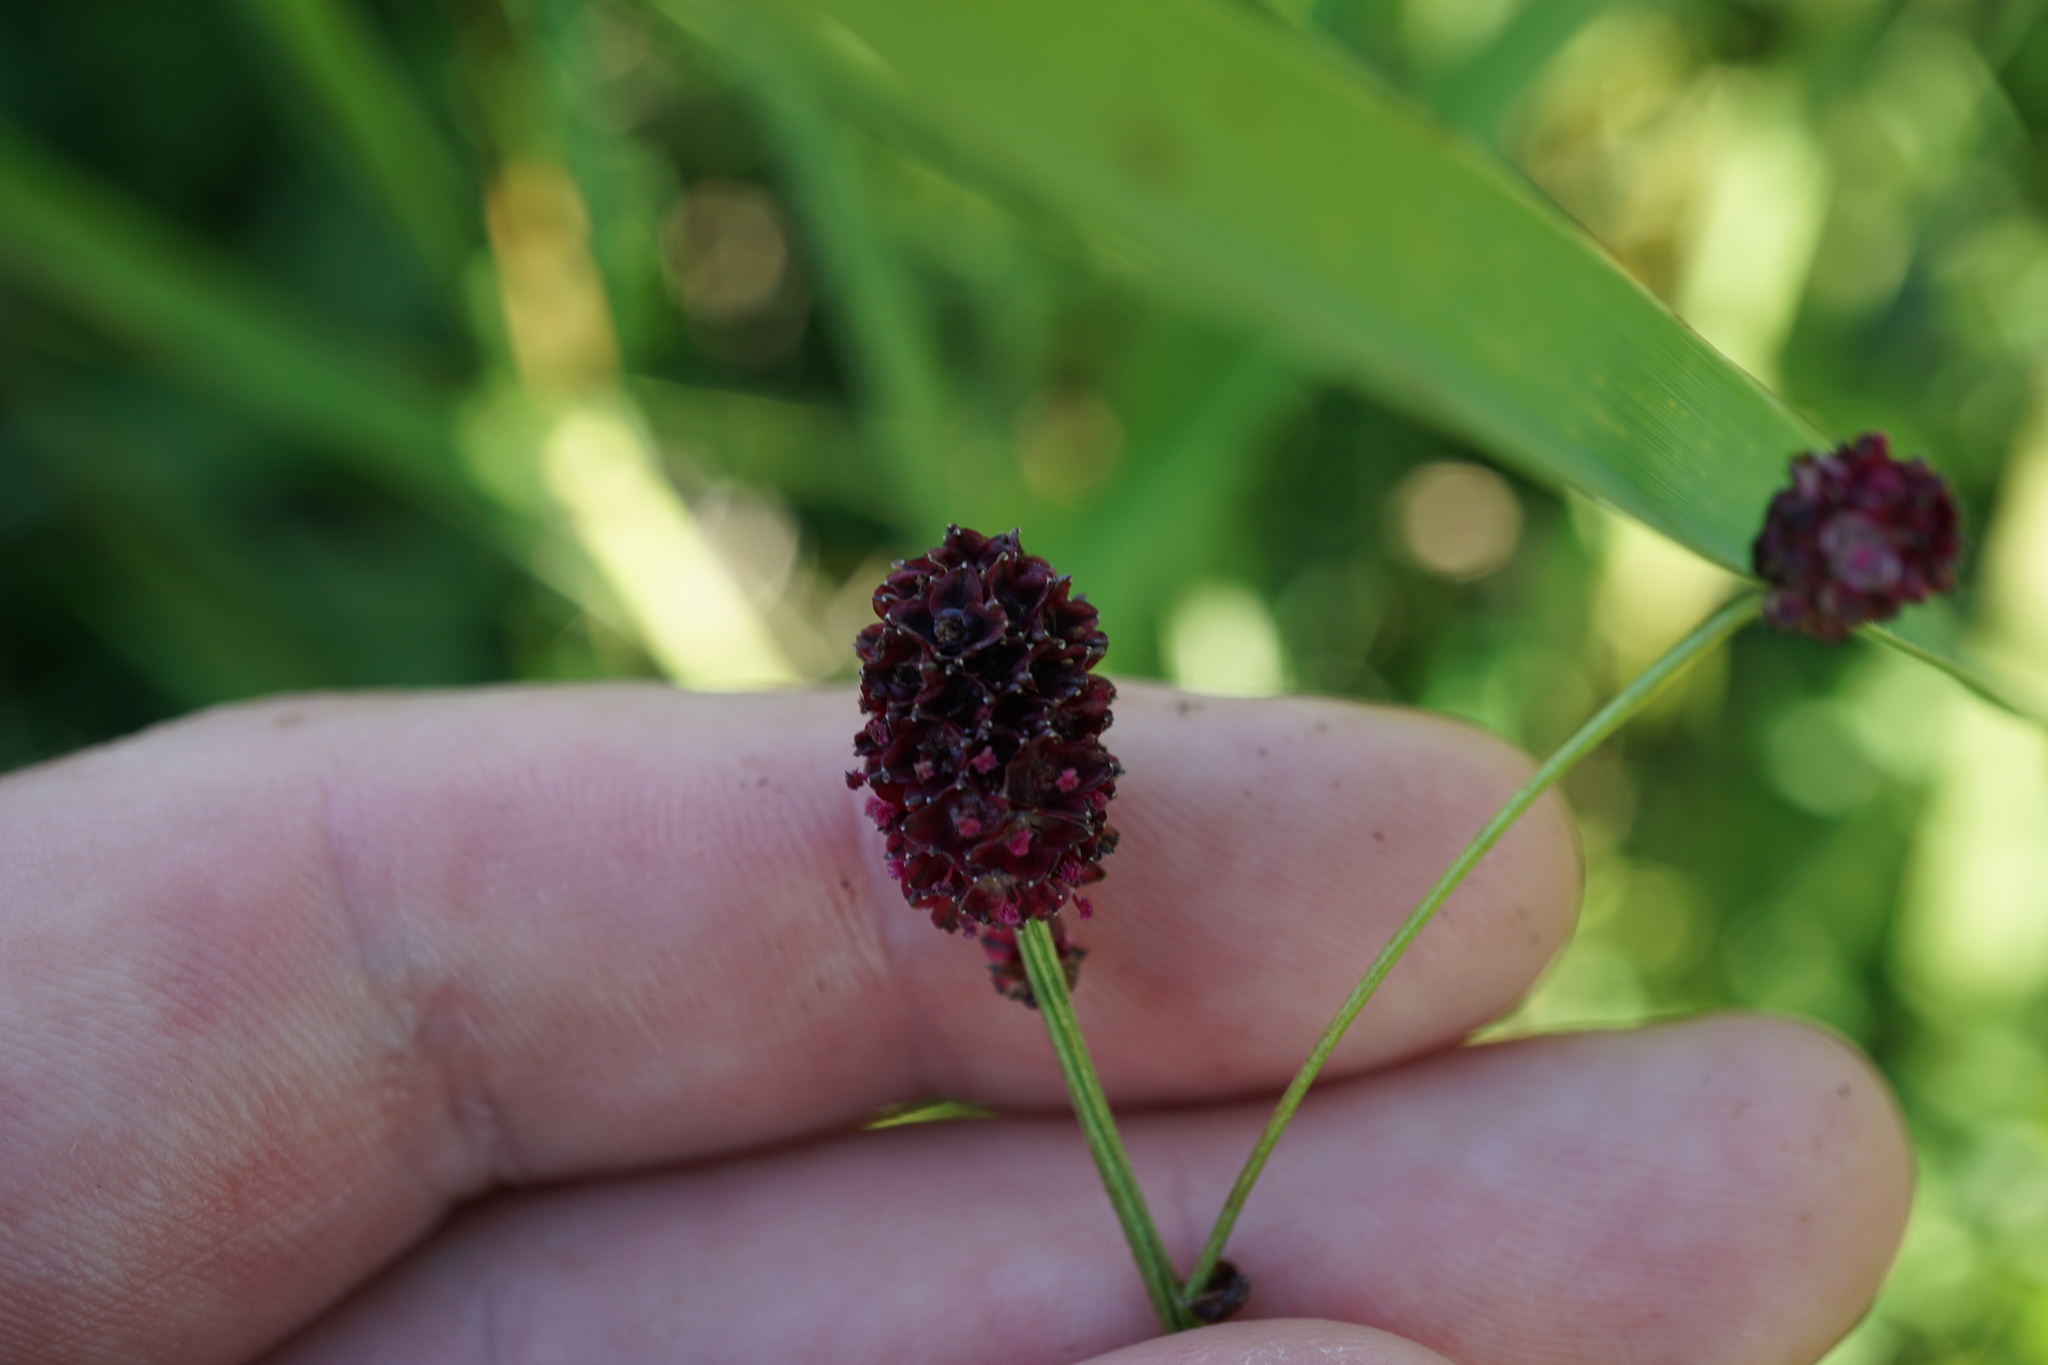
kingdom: Plantae
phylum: Tracheophyta
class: Magnoliopsida
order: Rosales
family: Rosaceae
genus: Sanguisorba
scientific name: Sanguisorba officinalis
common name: Great burnet
